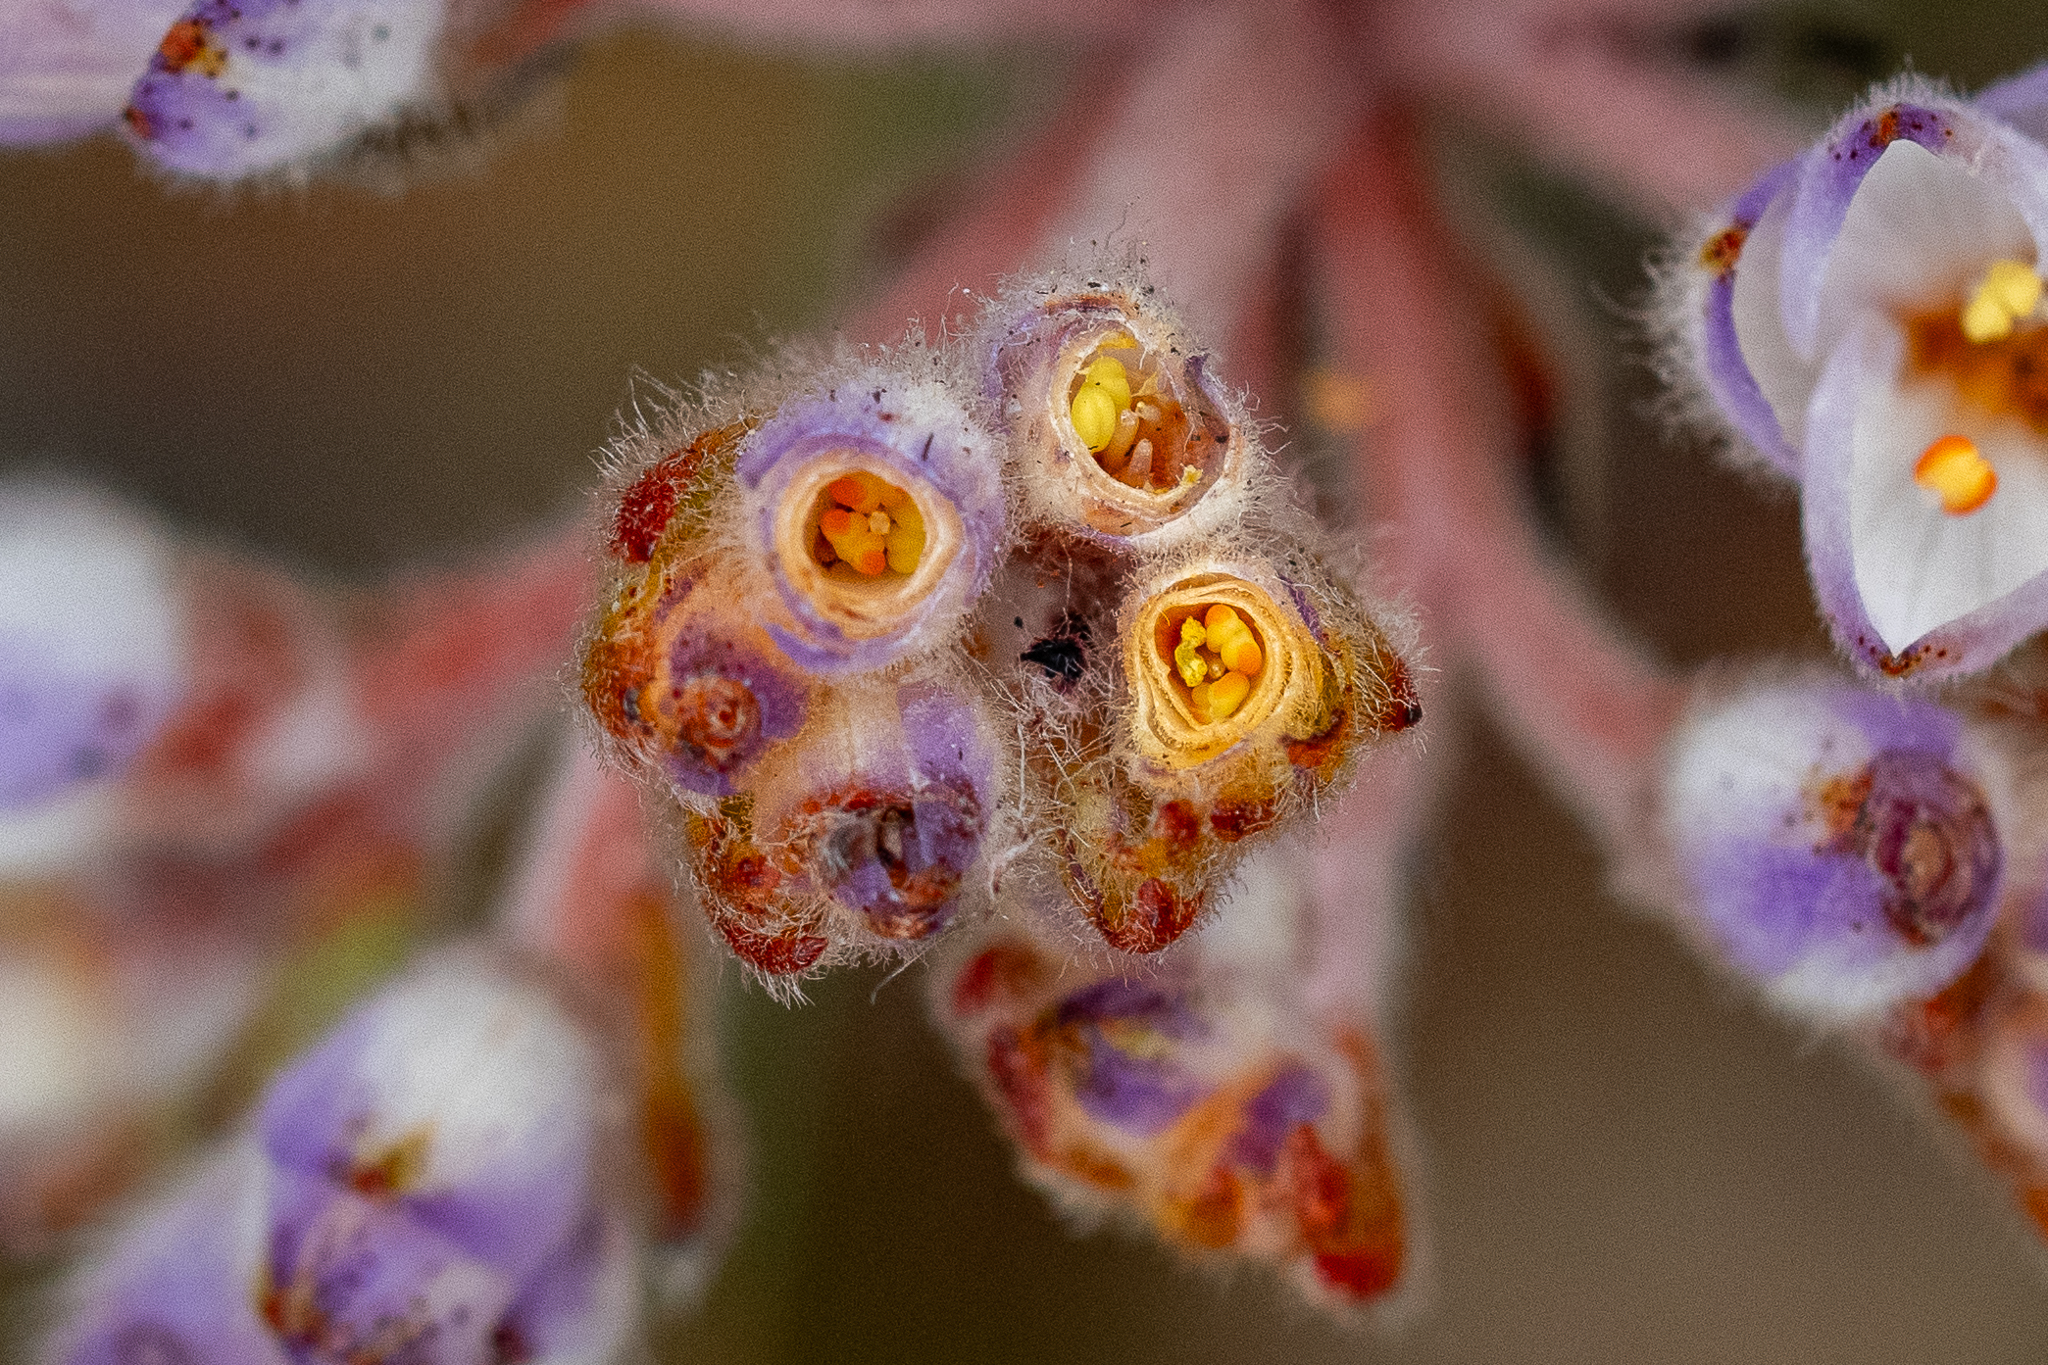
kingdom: Plantae
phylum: Tracheophyta
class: Liliopsida
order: Commelinales
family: Haemodoraceae
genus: Dilatris
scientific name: Dilatris pillansii
